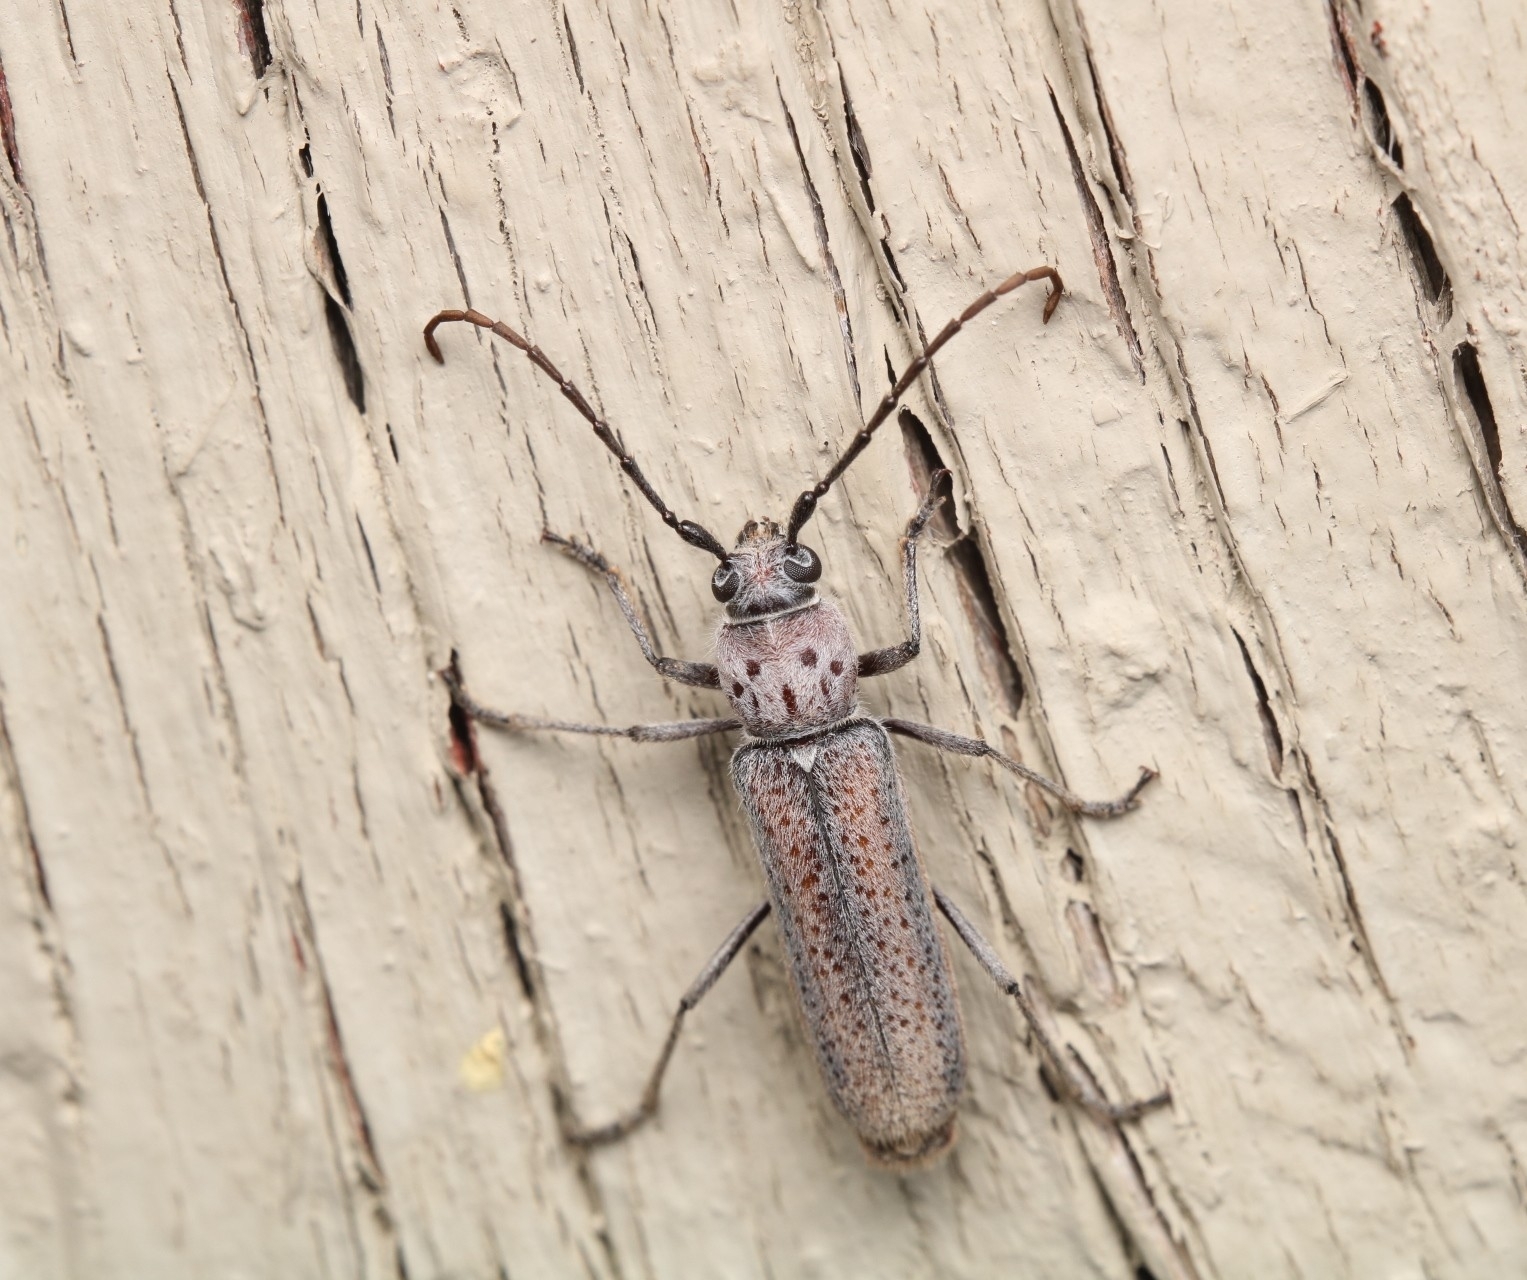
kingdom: Animalia
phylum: Arthropoda
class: Insecta
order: Coleoptera
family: Cerambycidae
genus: Chrotoma
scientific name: Chrotoma dunniana
